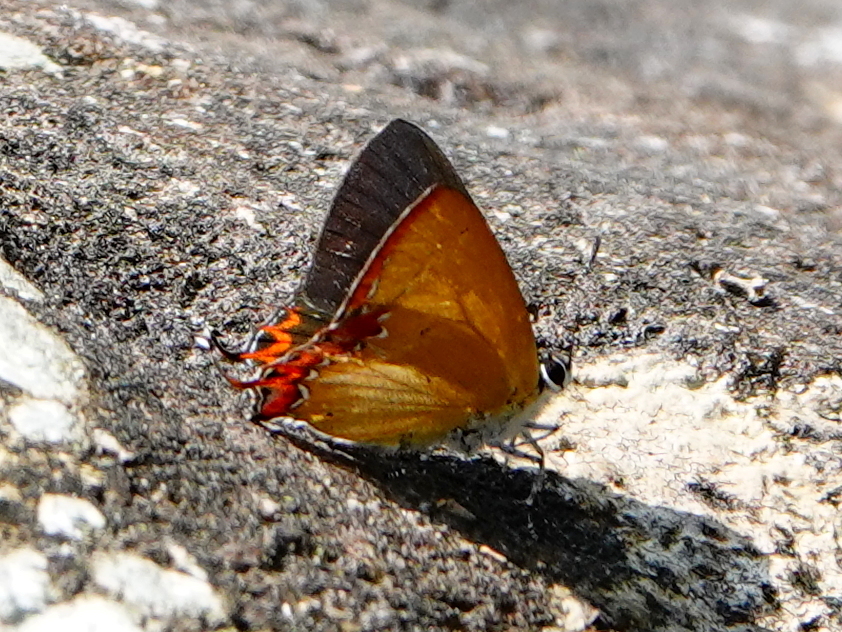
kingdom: Animalia
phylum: Arthropoda
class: Insecta
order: Lepidoptera
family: Lycaenidae
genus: Heliophorus
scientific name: Heliophorus epicles
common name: Purple sapphire
